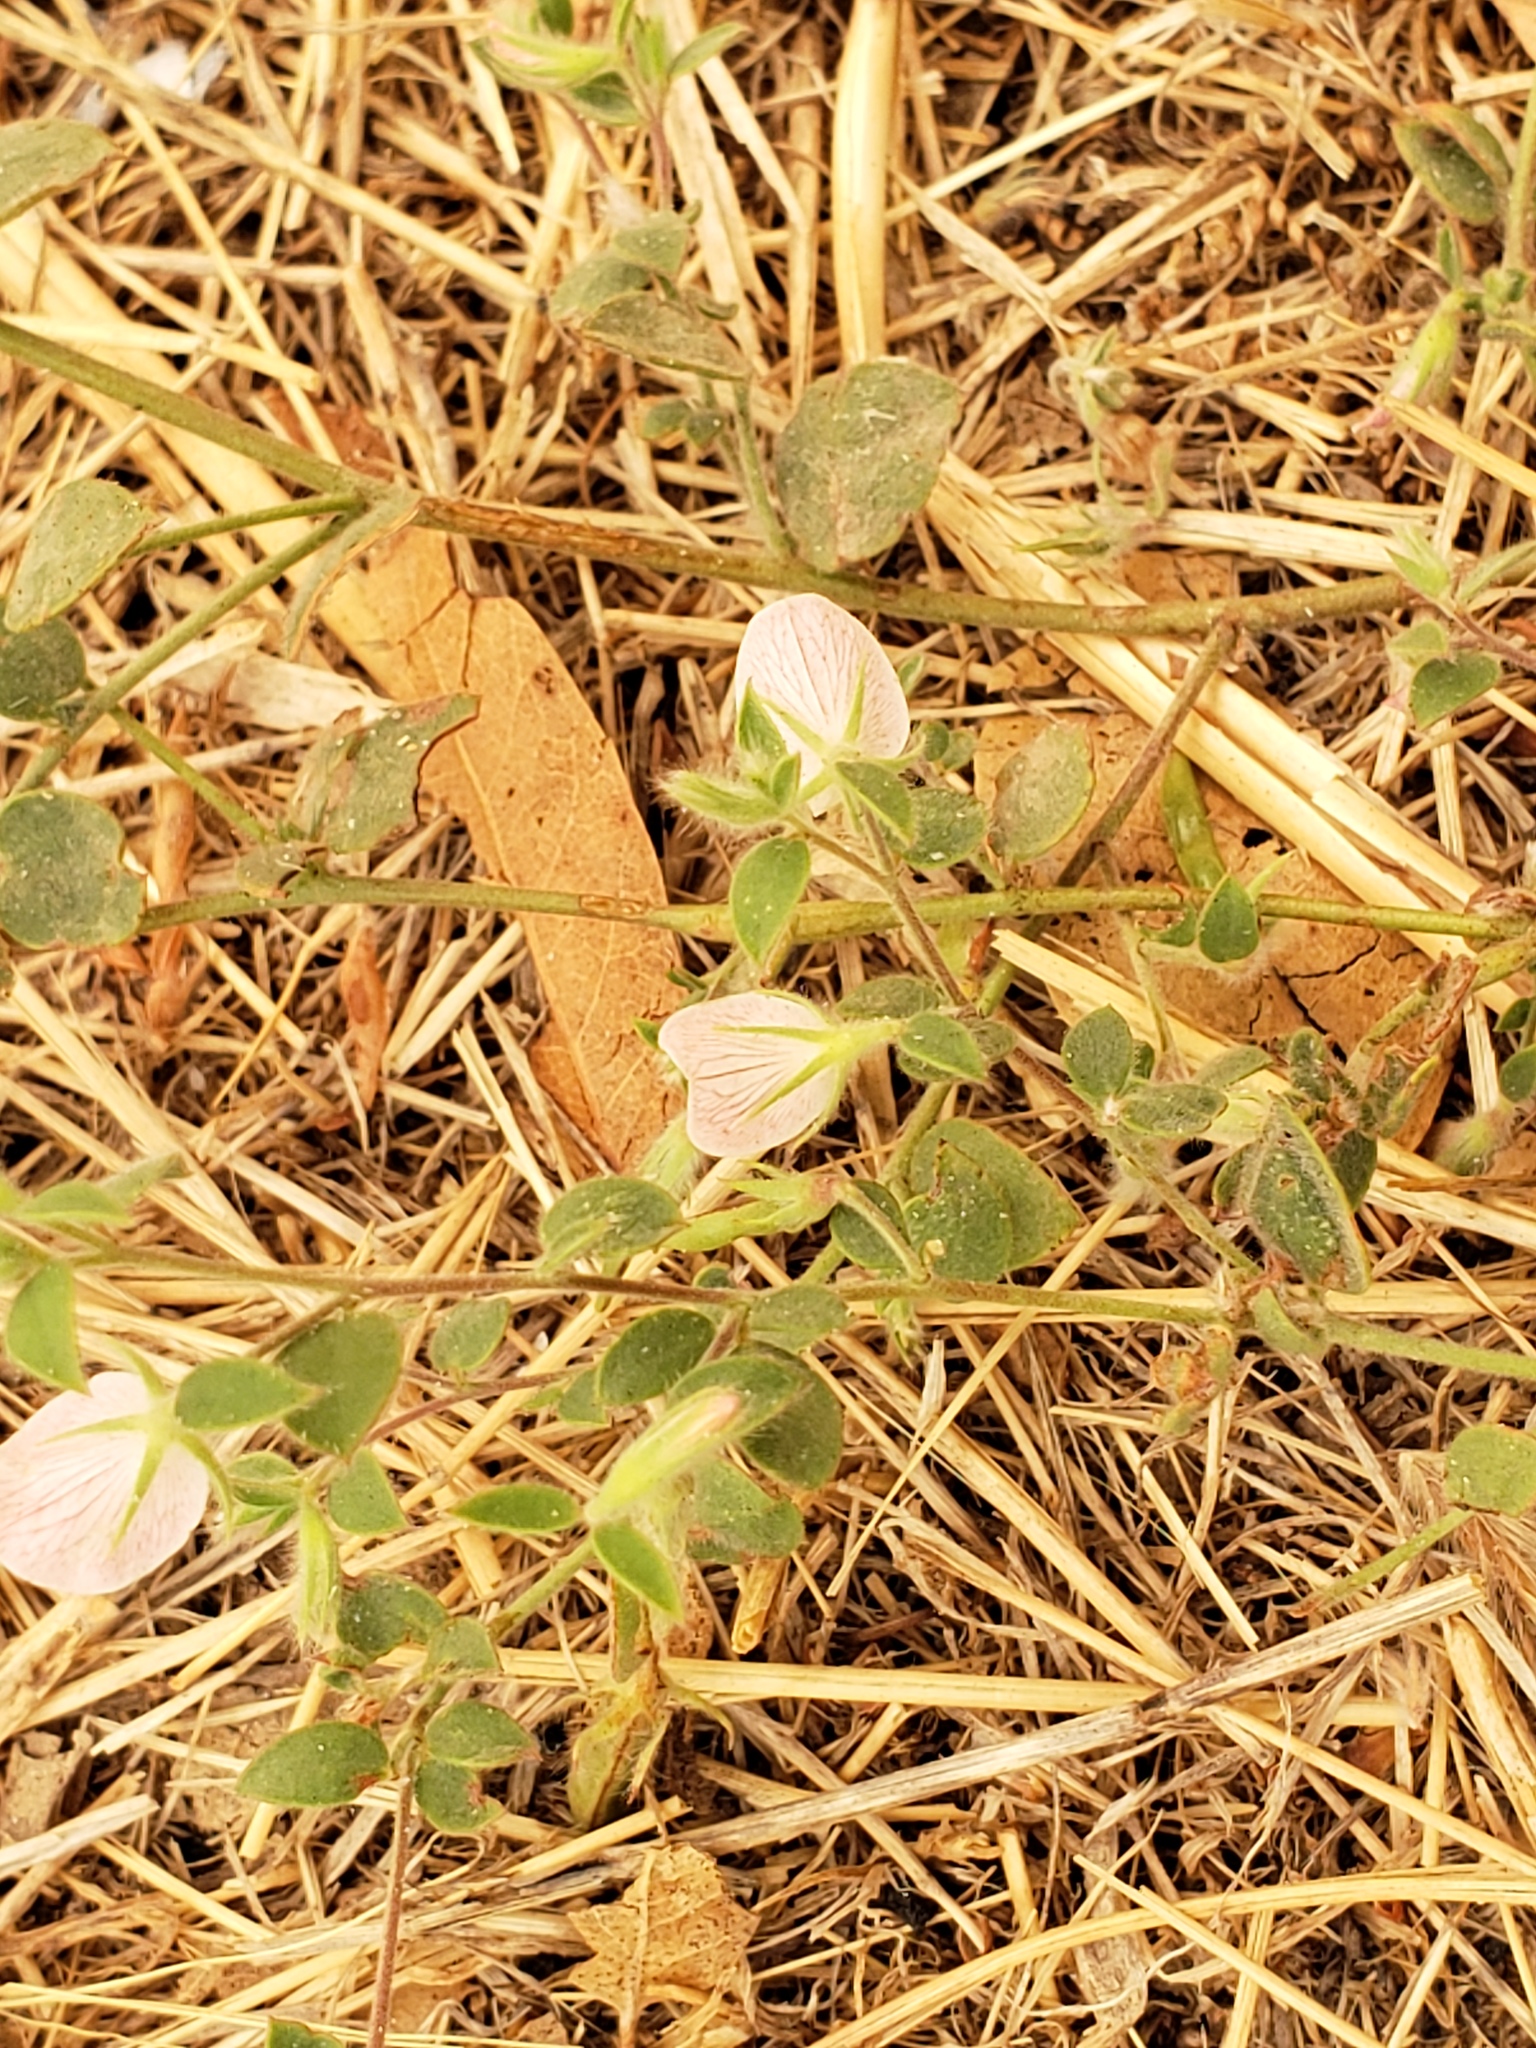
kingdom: Plantae
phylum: Tracheophyta
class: Magnoliopsida
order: Fabales
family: Fabaceae
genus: Acmispon
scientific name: Acmispon americanus
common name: American bird's-foot trefoil
